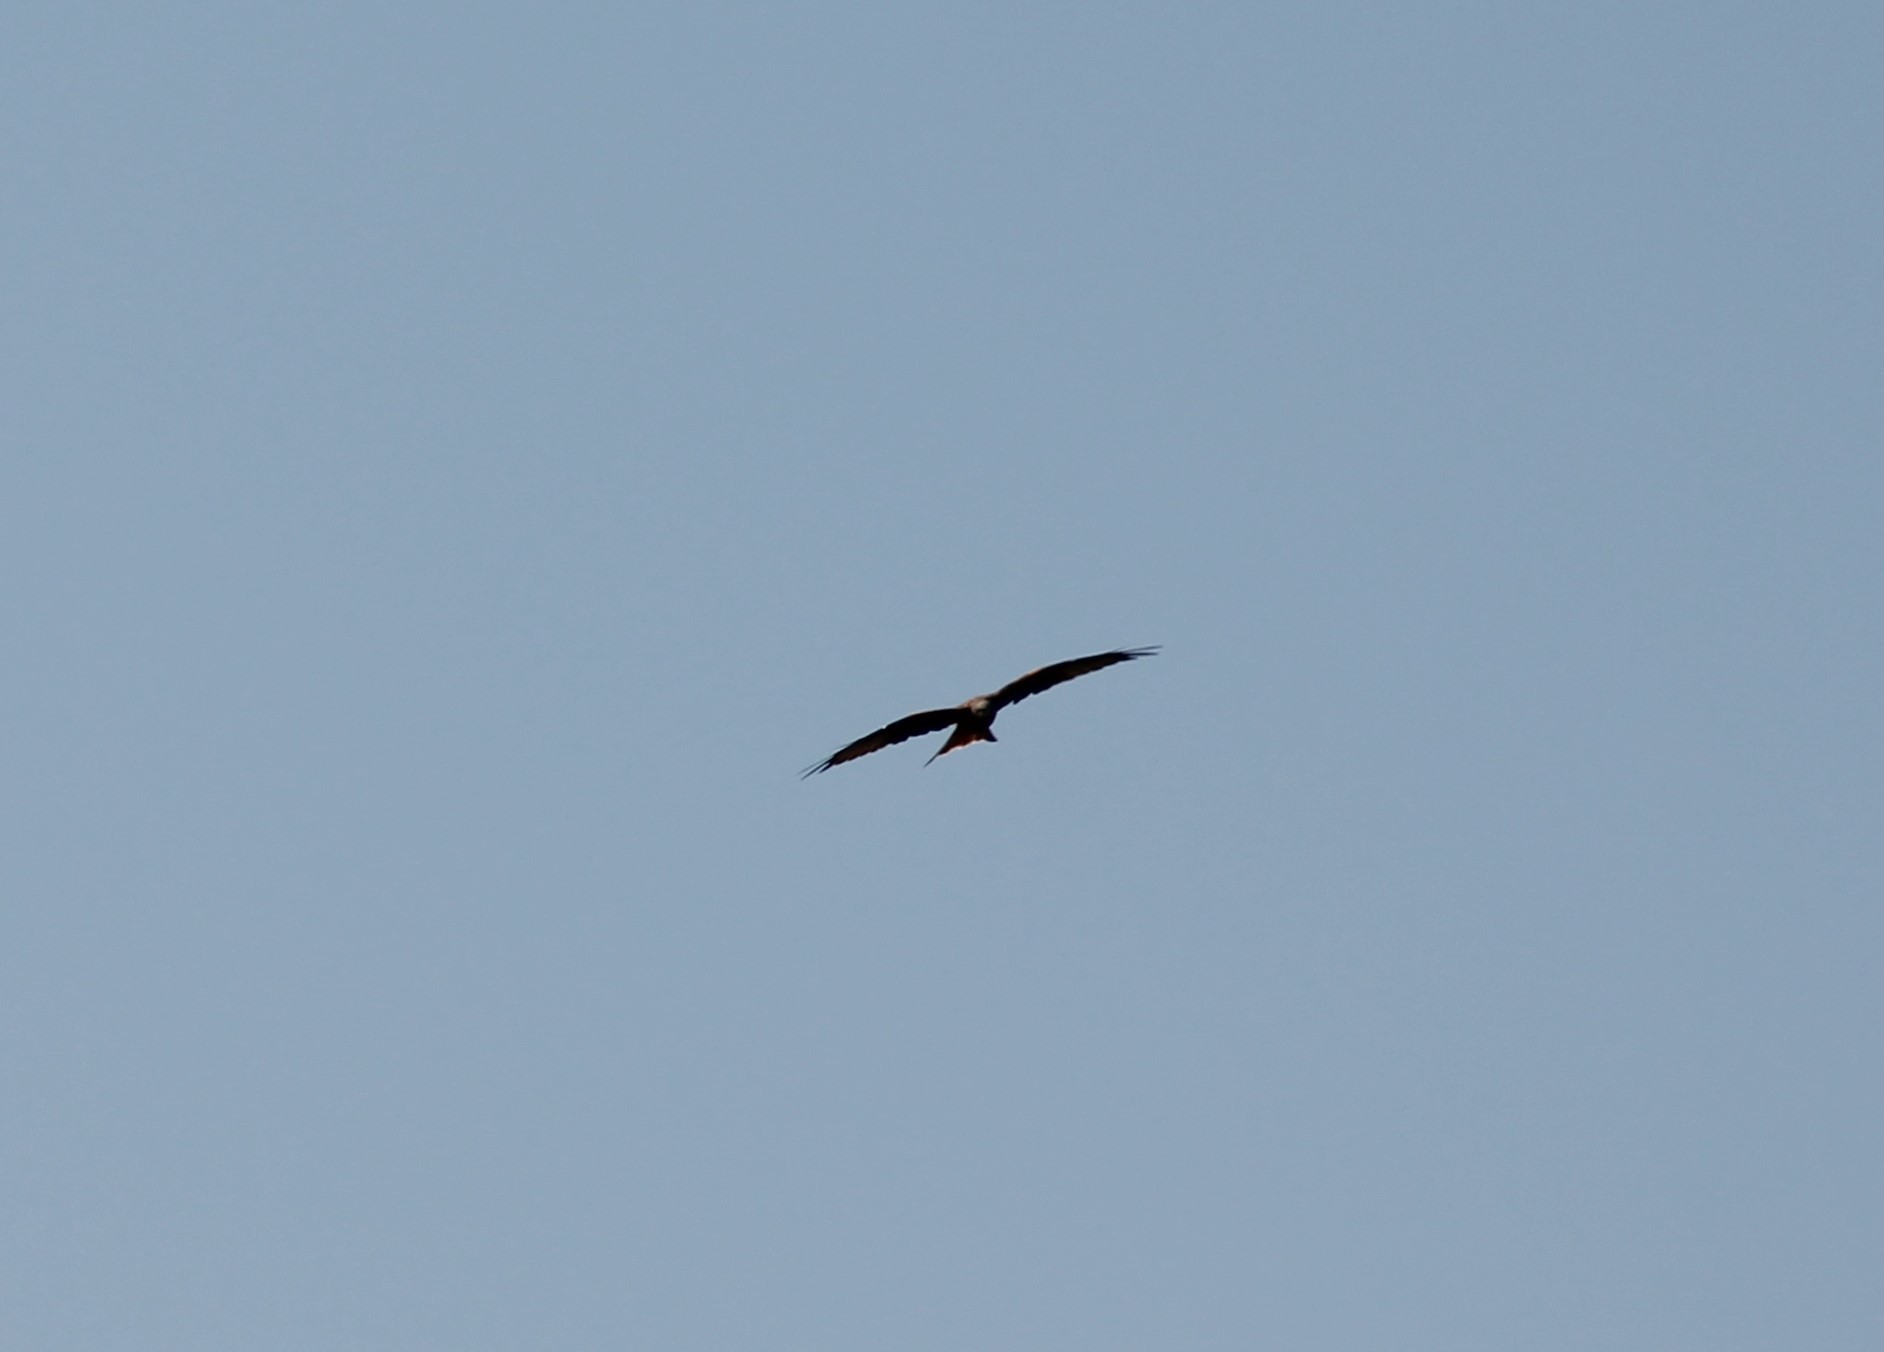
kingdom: Animalia
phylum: Chordata
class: Aves
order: Accipitriformes
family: Accipitridae
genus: Milvus
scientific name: Milvus milvus
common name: Red kite
